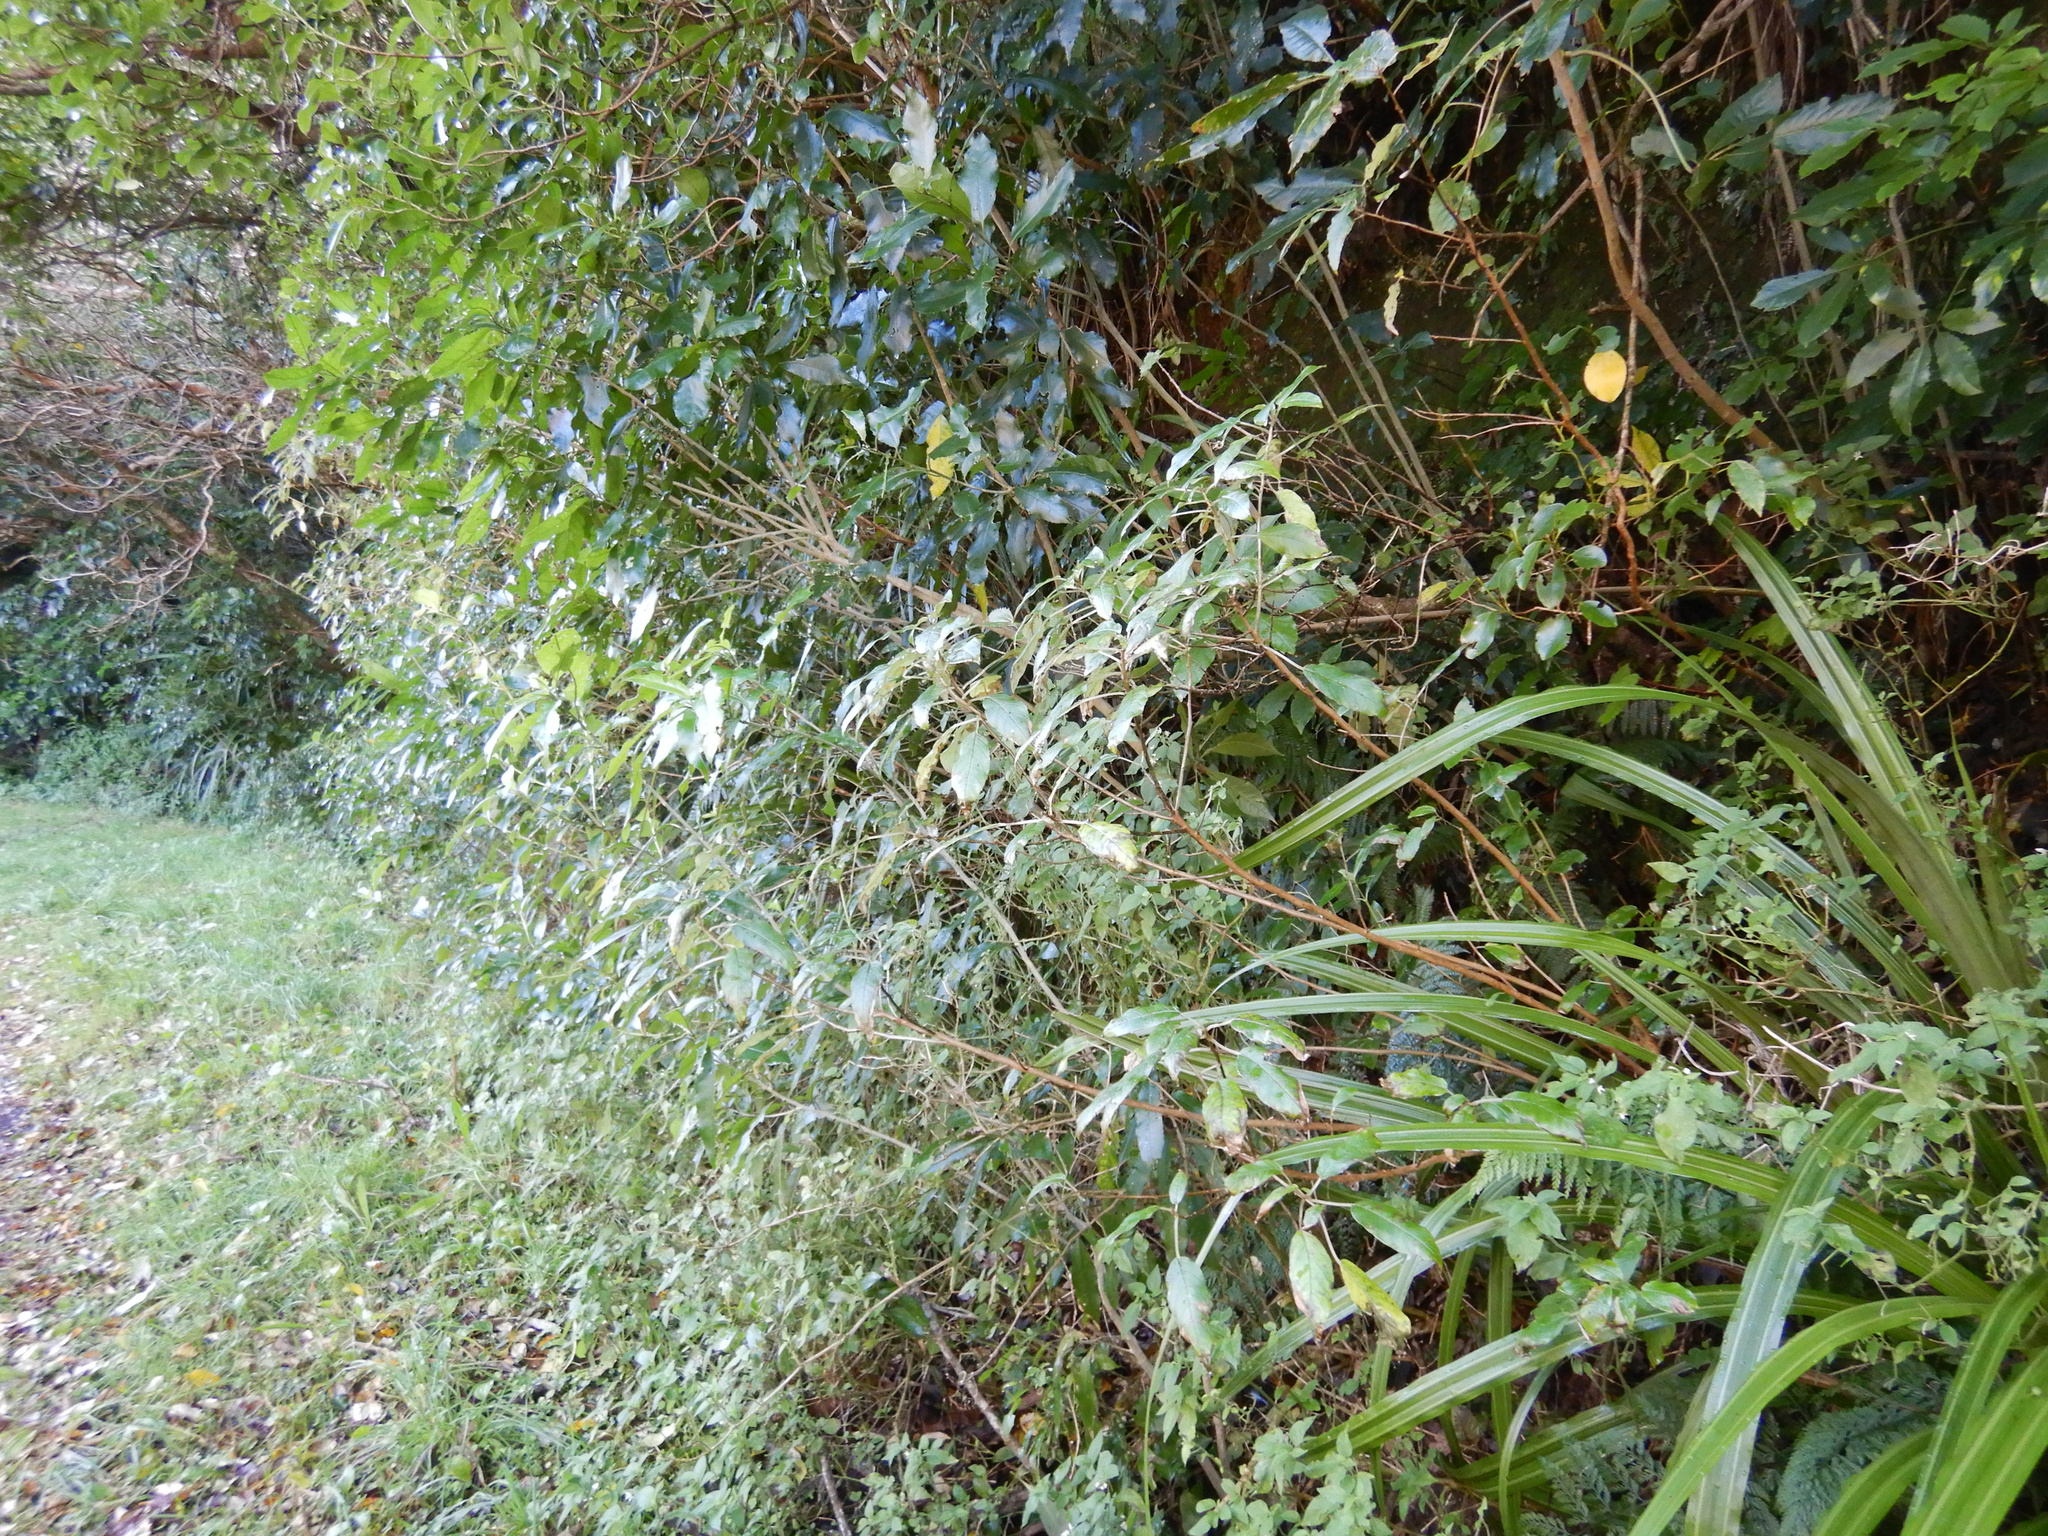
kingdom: Plantae
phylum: Tracheophyta
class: Magnoliopsida
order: Myrtales
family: Onagraceae
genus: Fuchsia
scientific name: Fuchsia excorticata
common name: Tree fuchsia
